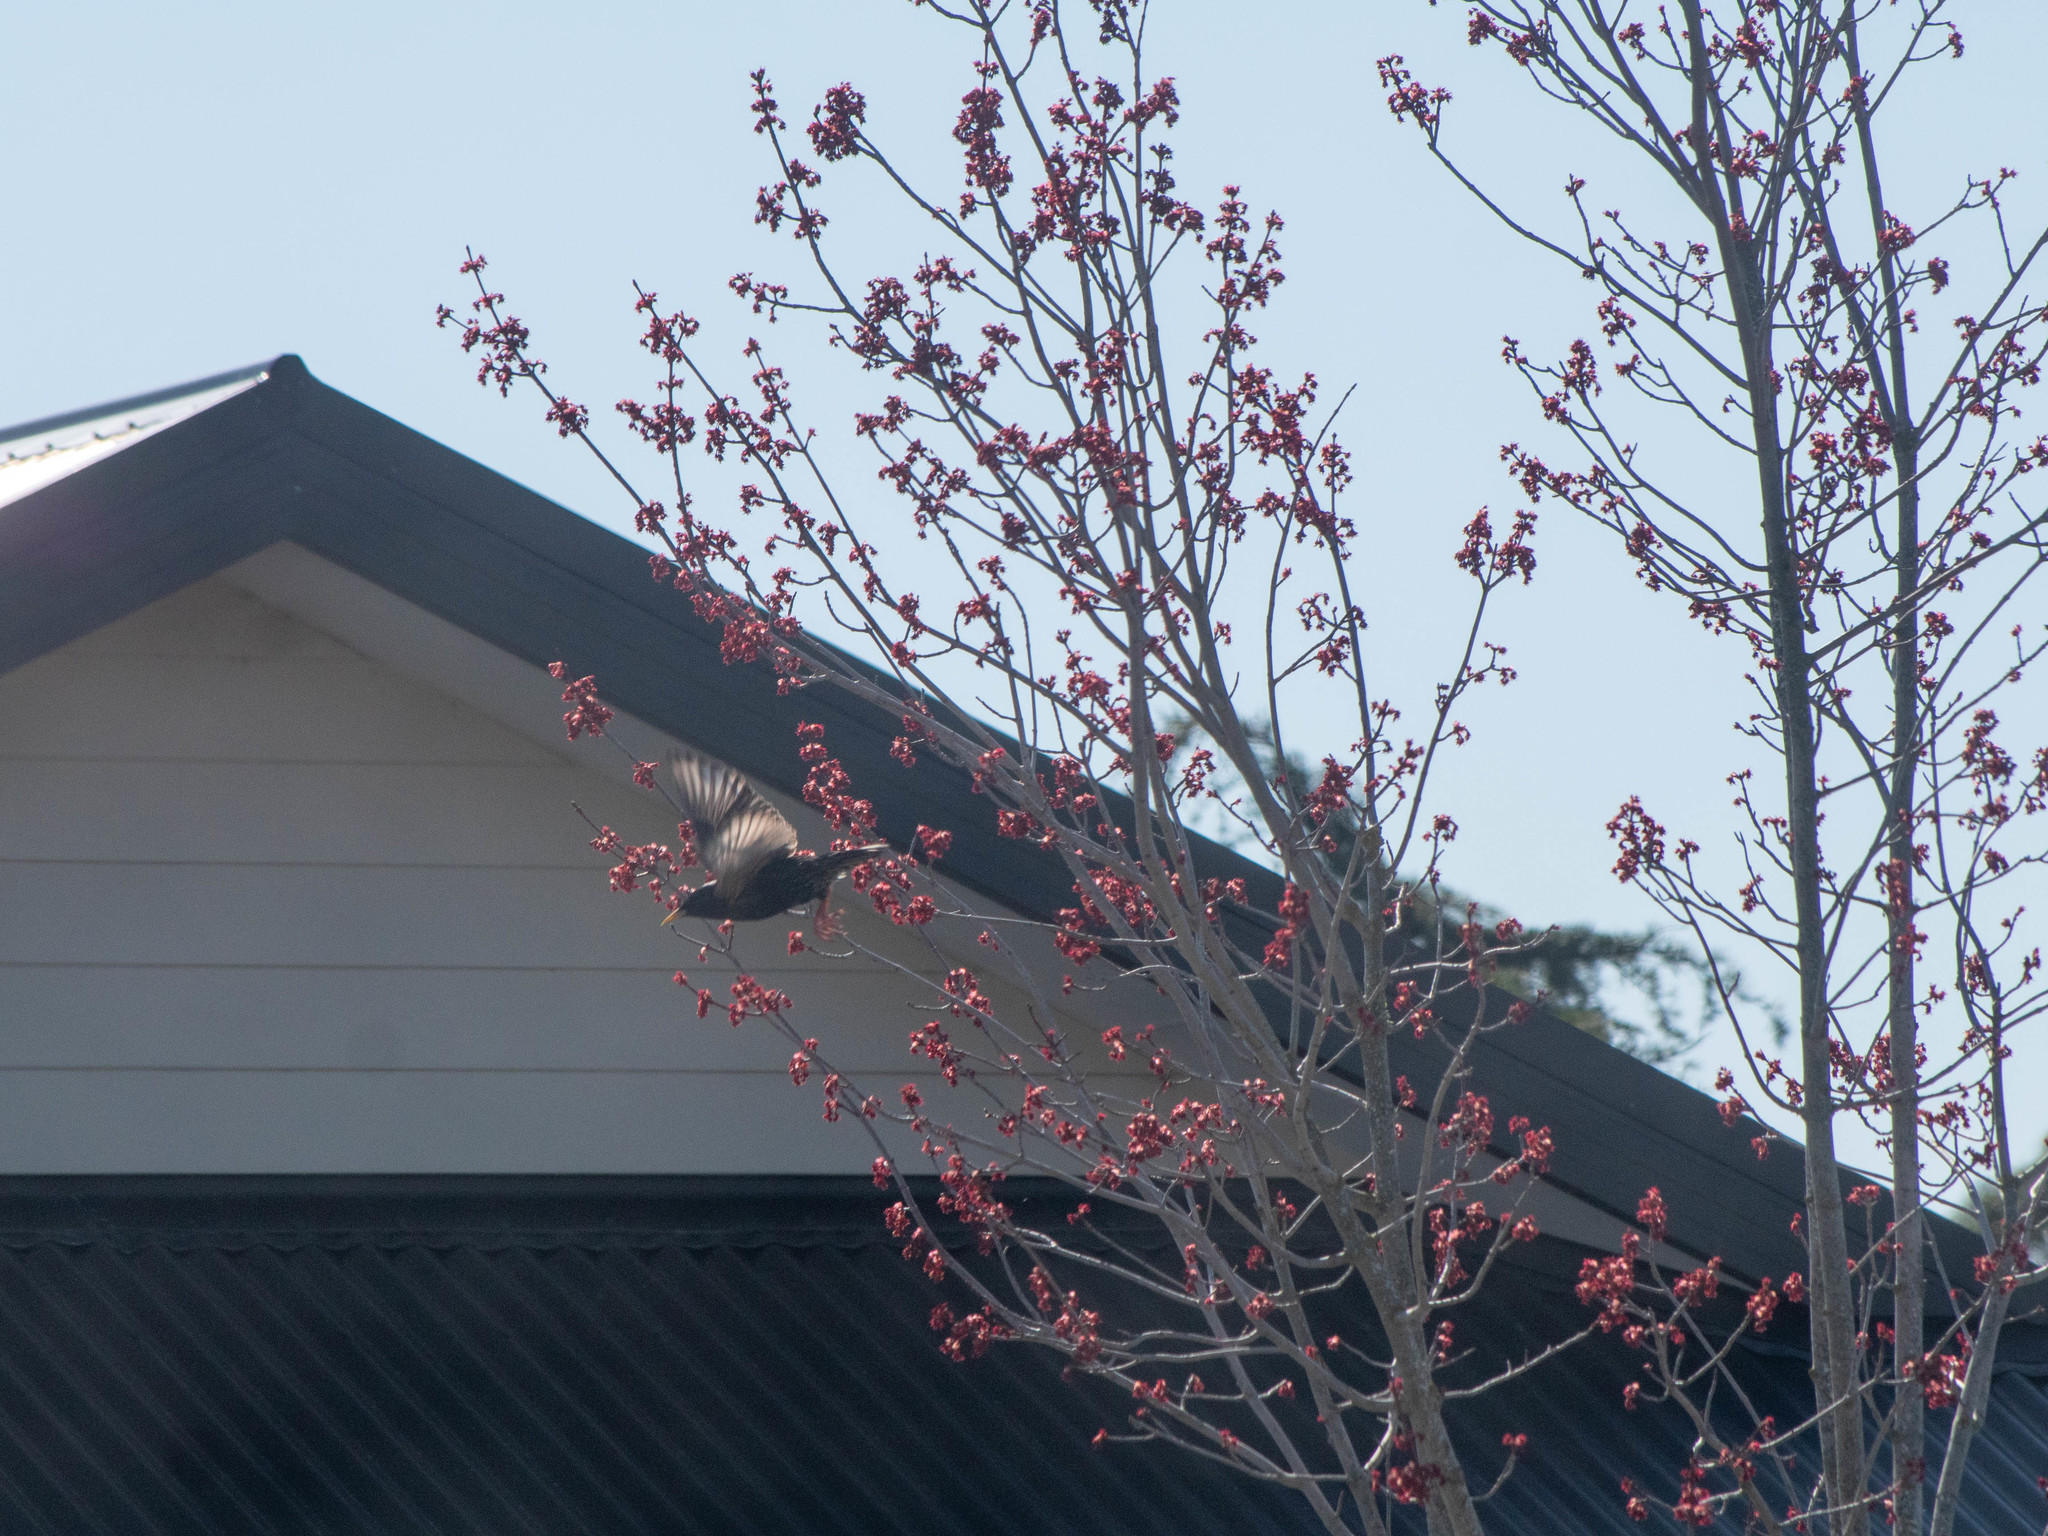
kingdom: Animalia
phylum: Chordata
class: Aves
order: Passeriformes
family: Sturnidae
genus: Sturnus
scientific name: Sturnus vulgaris
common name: Common starling
